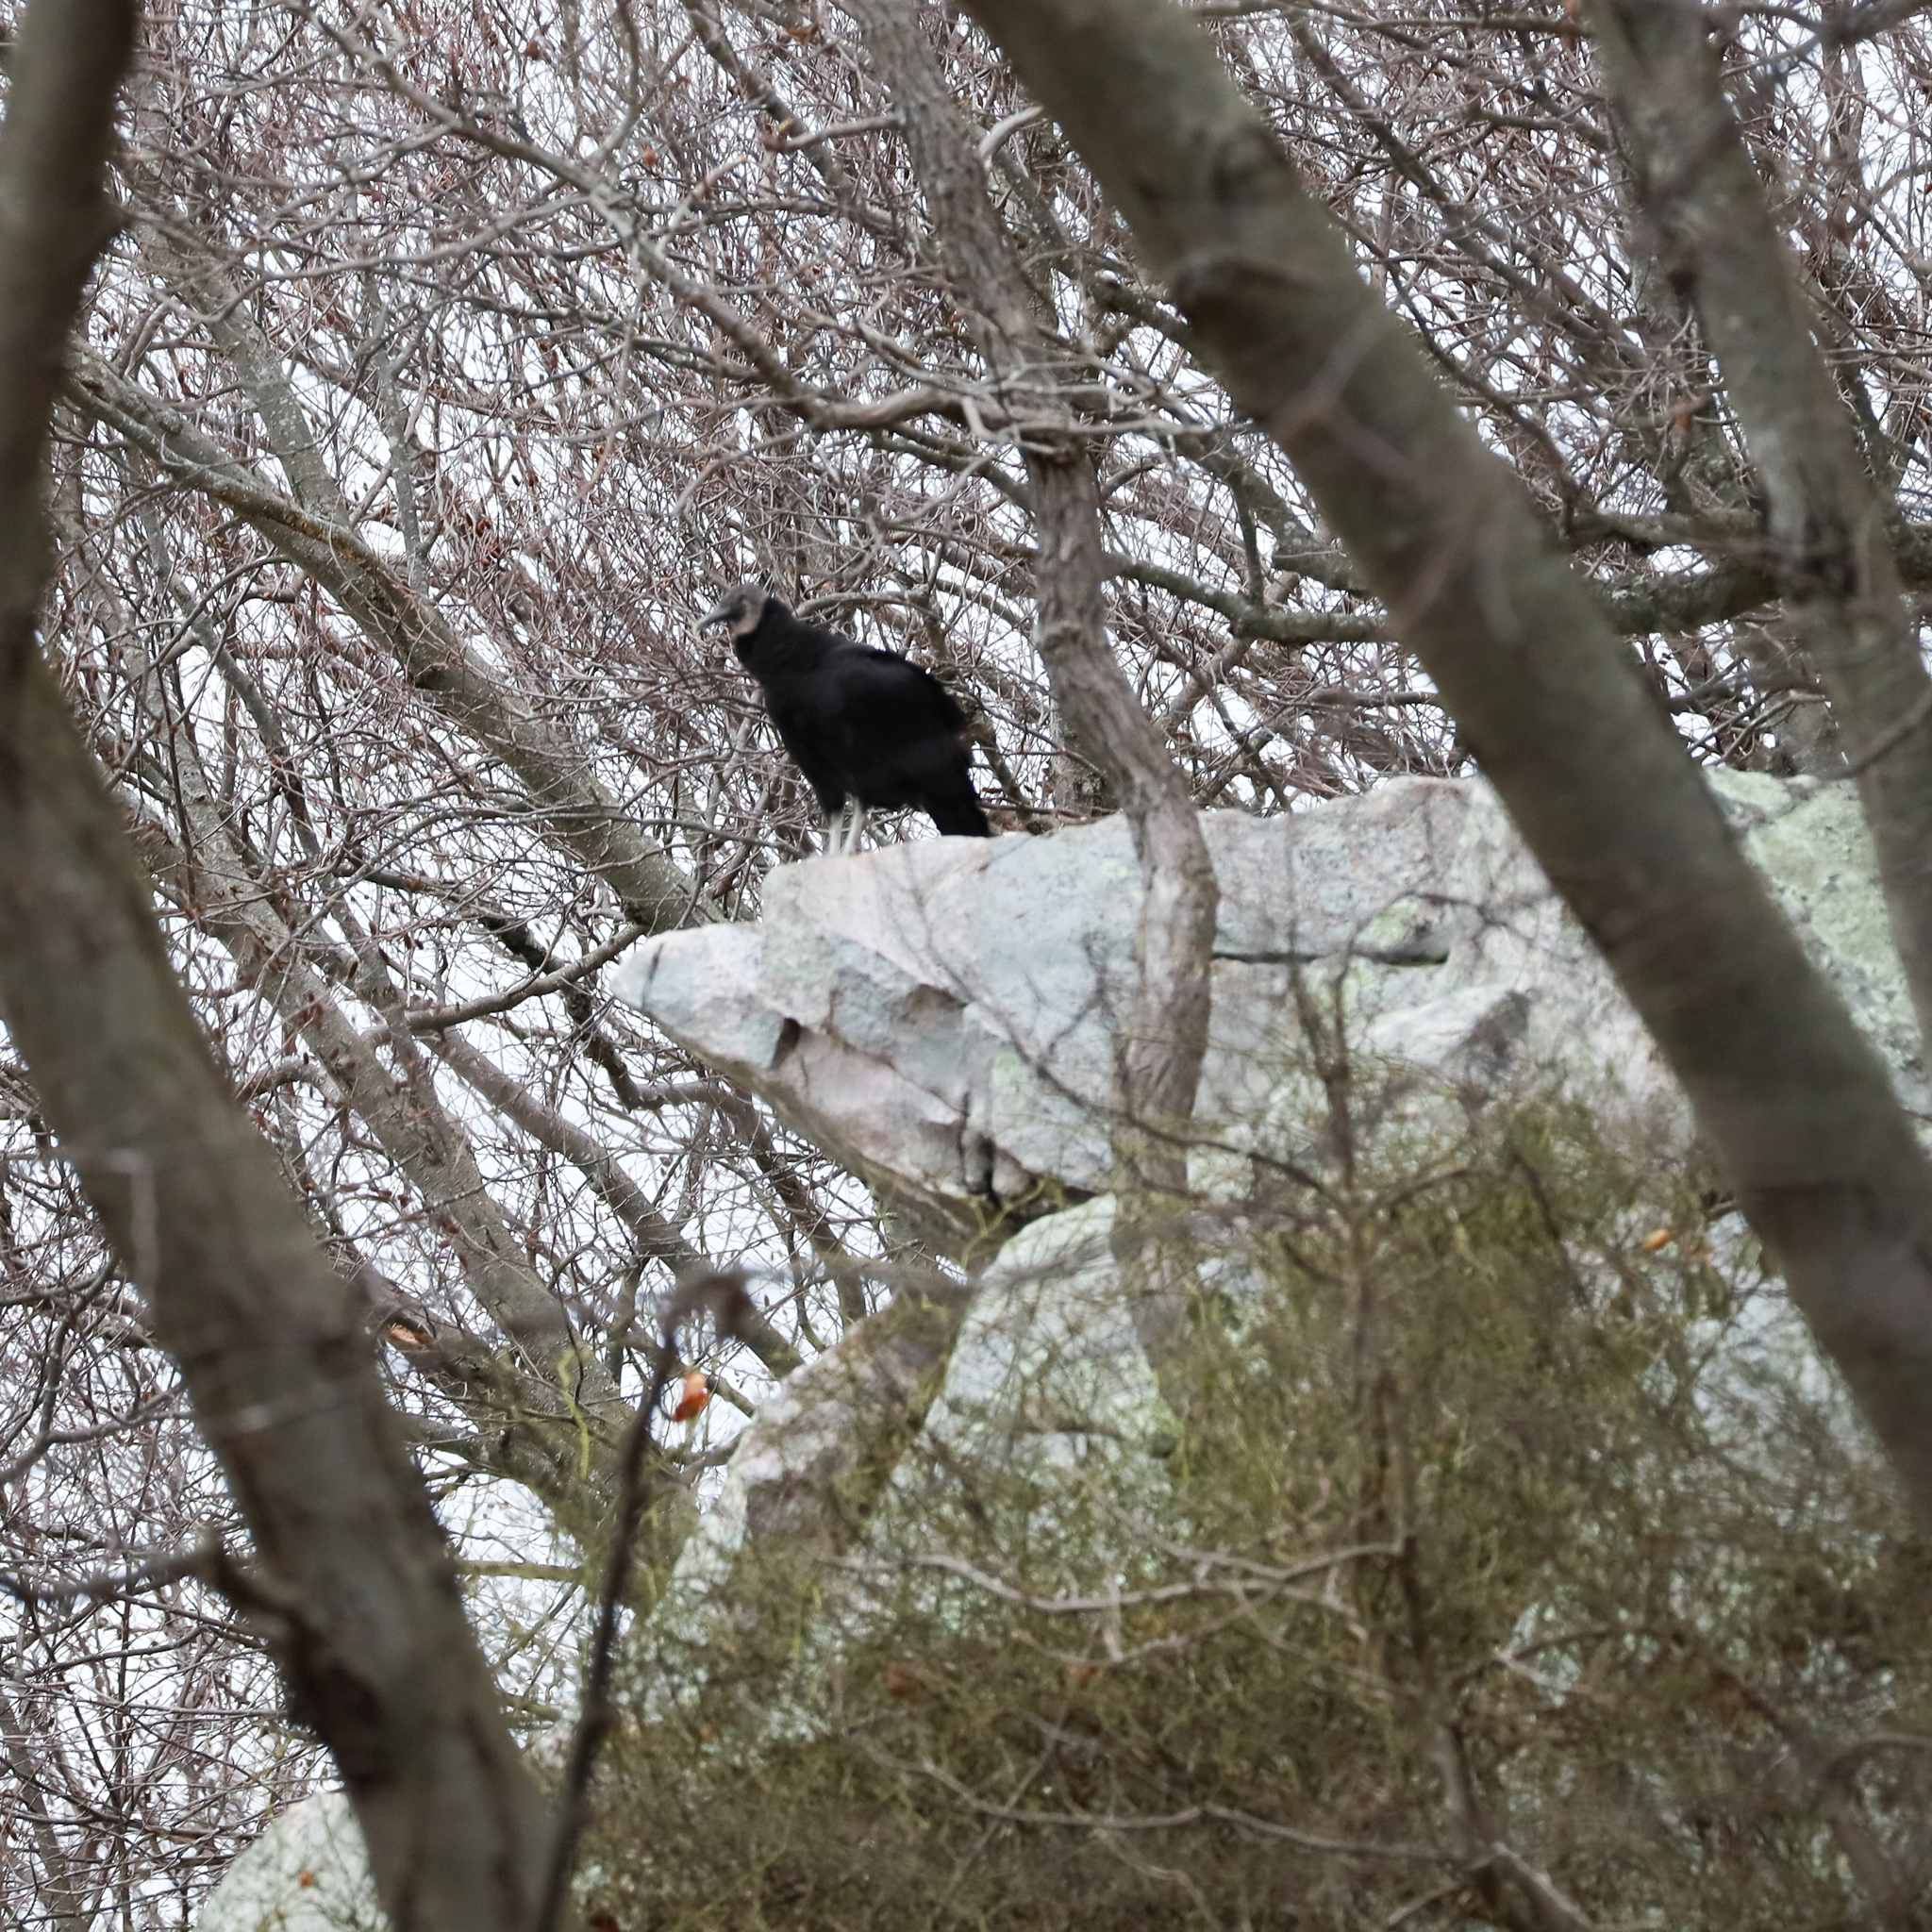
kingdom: Animalia
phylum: Chordata
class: Aves
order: Accipitriformes
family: Cathartidae
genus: Coragyps
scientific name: Coragyps atratus
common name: Black vulture
